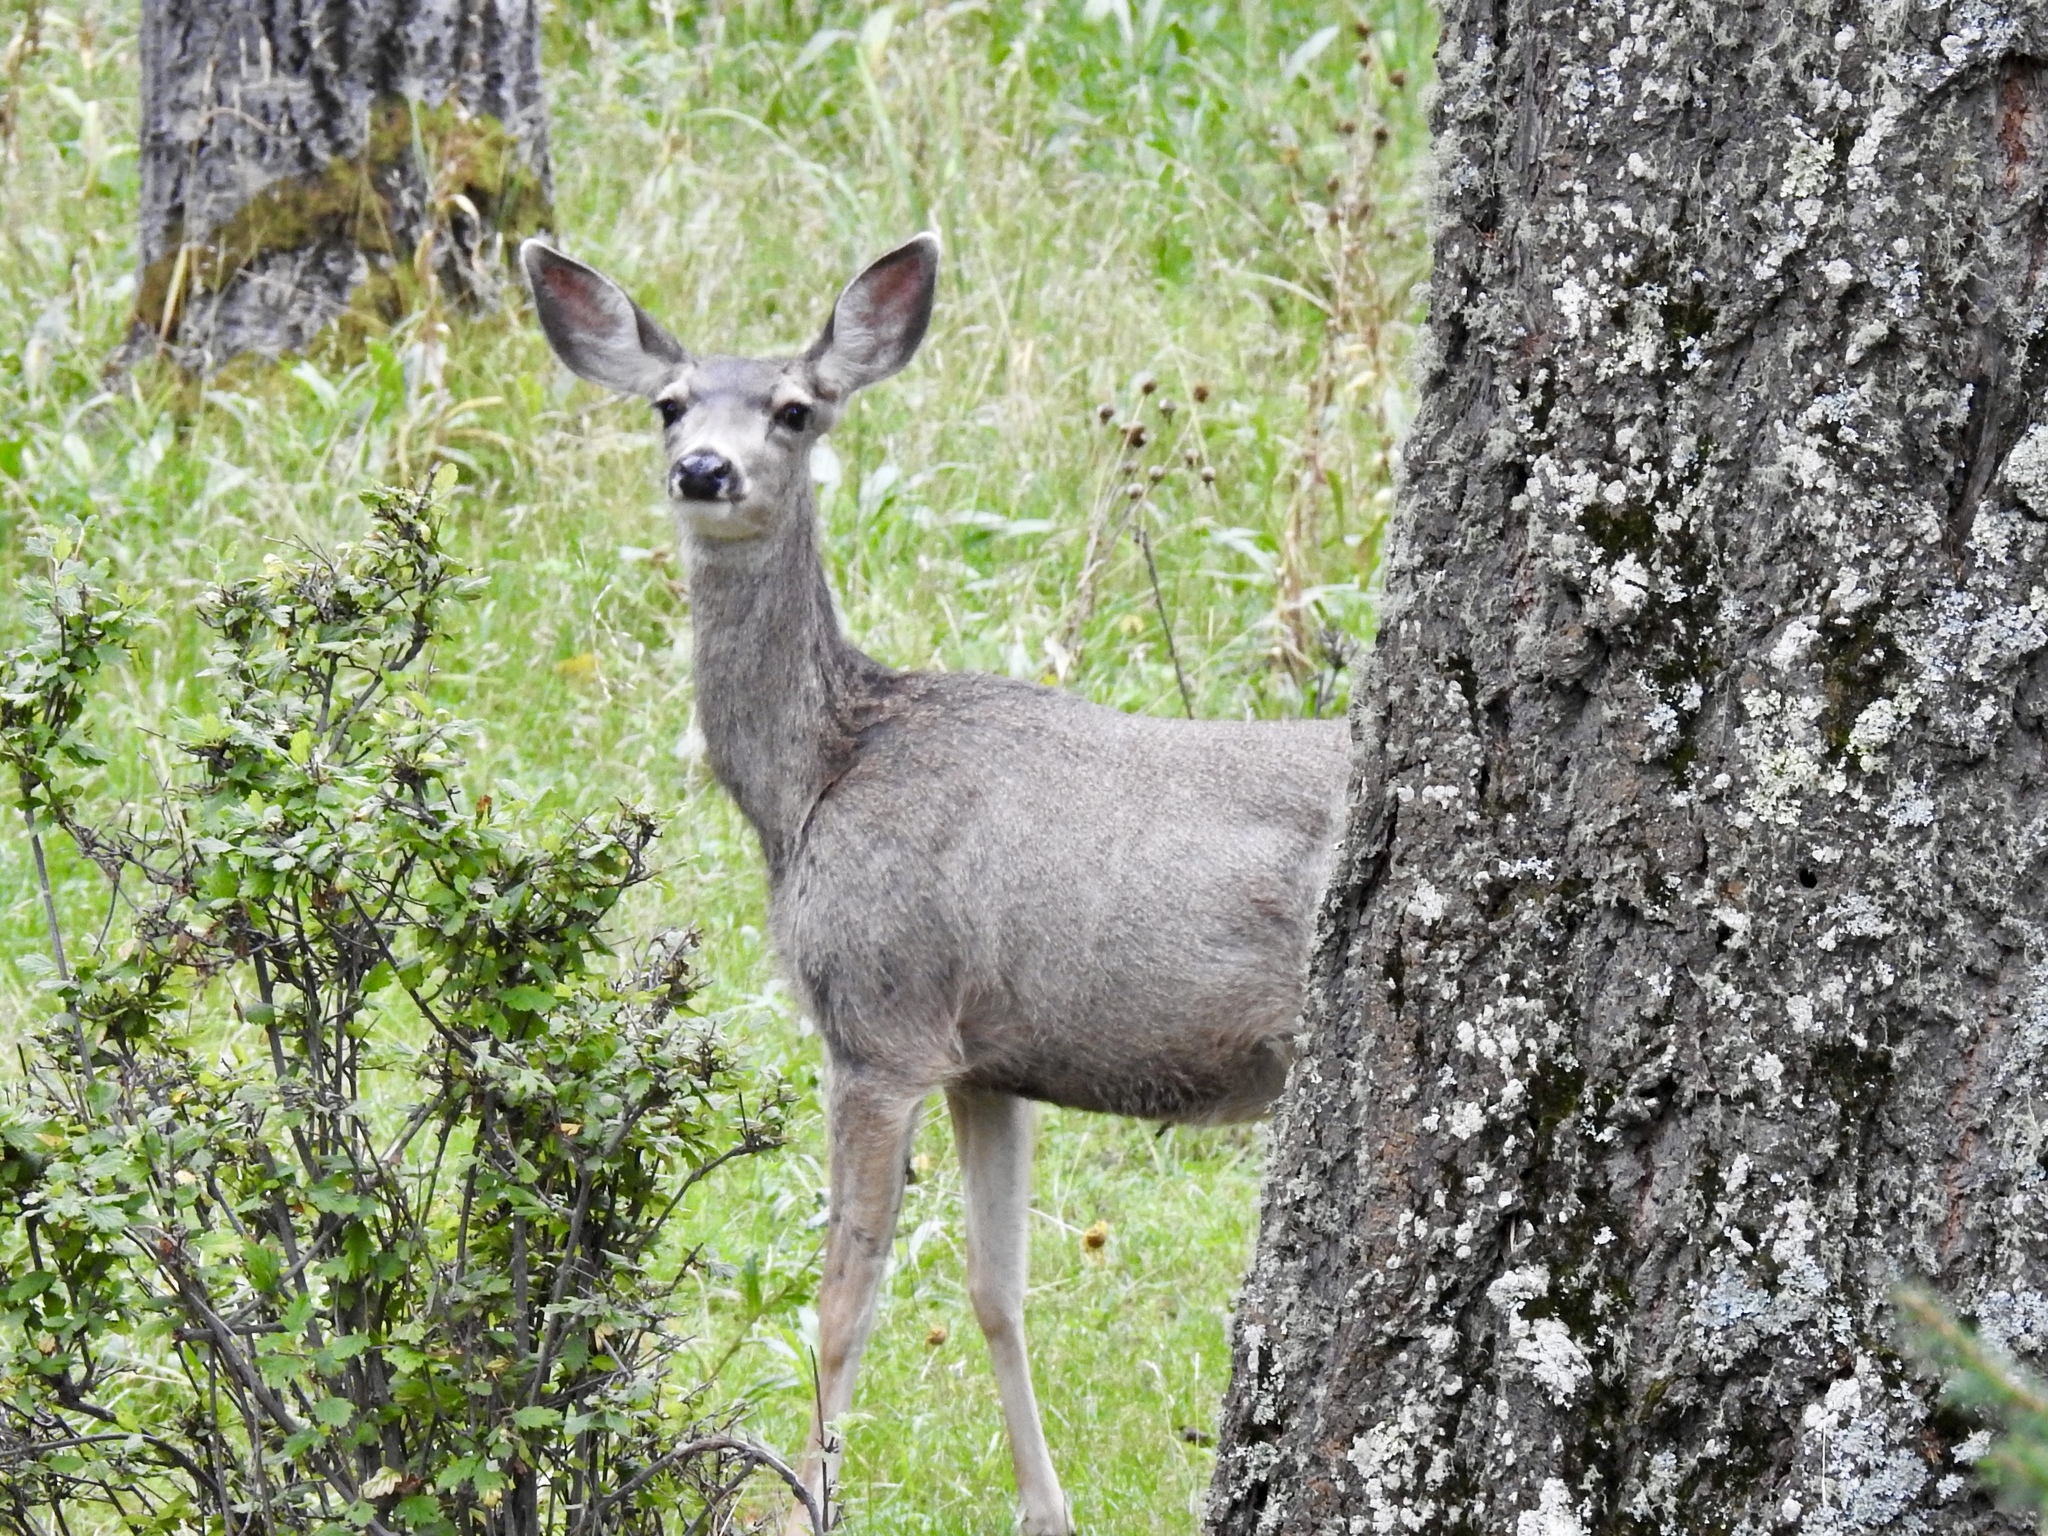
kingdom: Animalia
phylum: Chordata
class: Mammalia
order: Artiodactyla
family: Cervidae
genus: Odocoileus
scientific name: Odocoileus hemionus
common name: Mule deer
